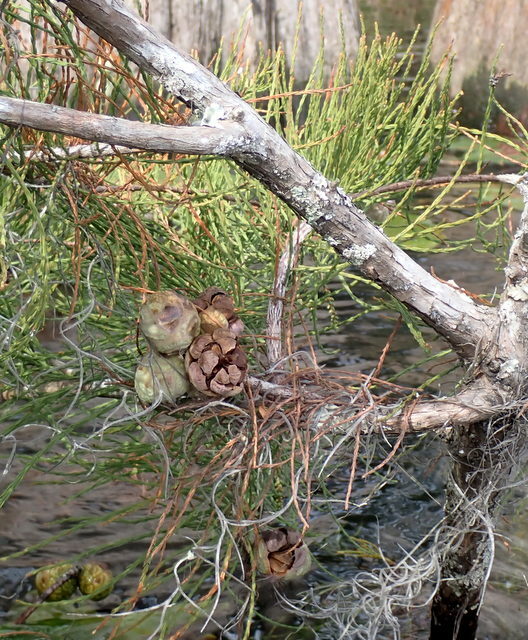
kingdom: Plantae
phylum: Tracheophyta
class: Pinopsida
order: Pinales
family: Cupressaceae
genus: Taxodium
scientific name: Taxodium distichum
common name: Bald cypress
